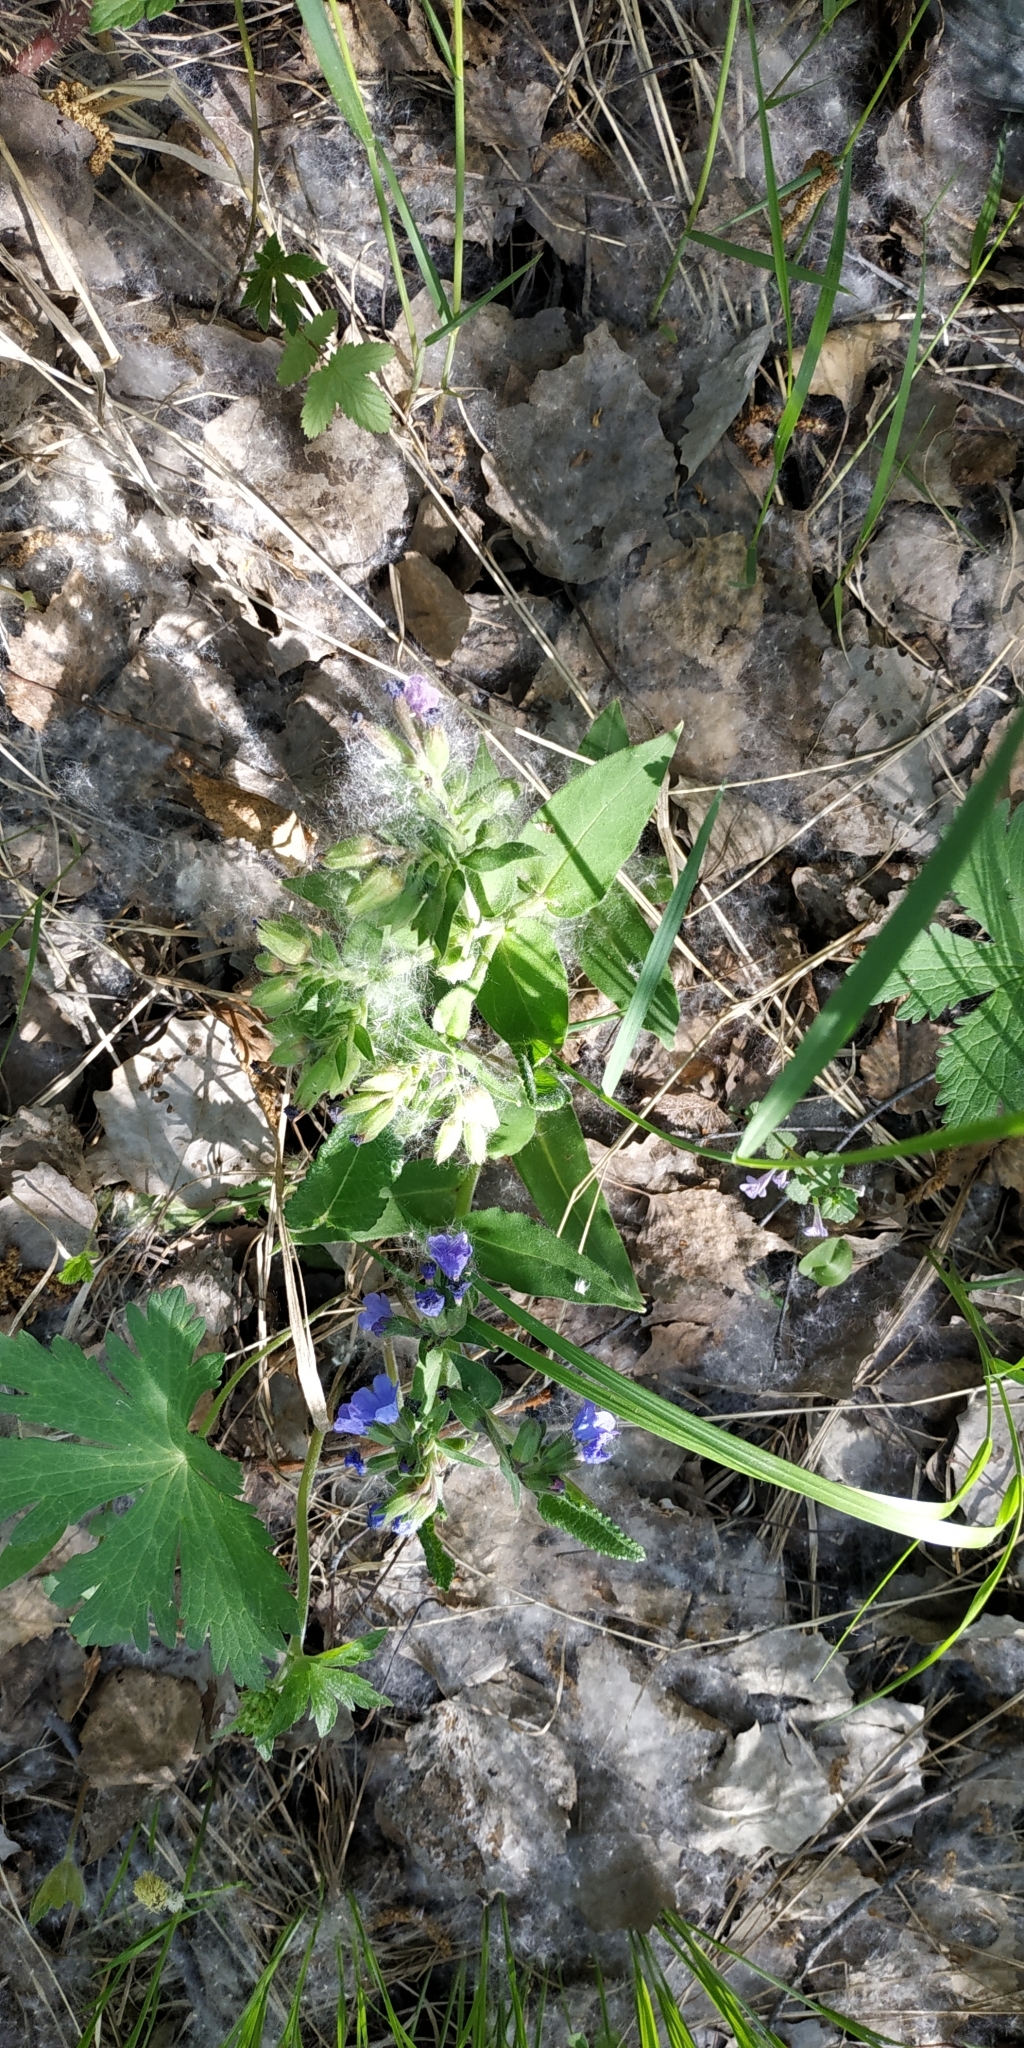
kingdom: Plantae
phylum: Tracheophyta
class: Magnoliopsida
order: Boraginales
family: Boraginaceae
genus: Pulmonaria
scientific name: Pulmonaria mollis
